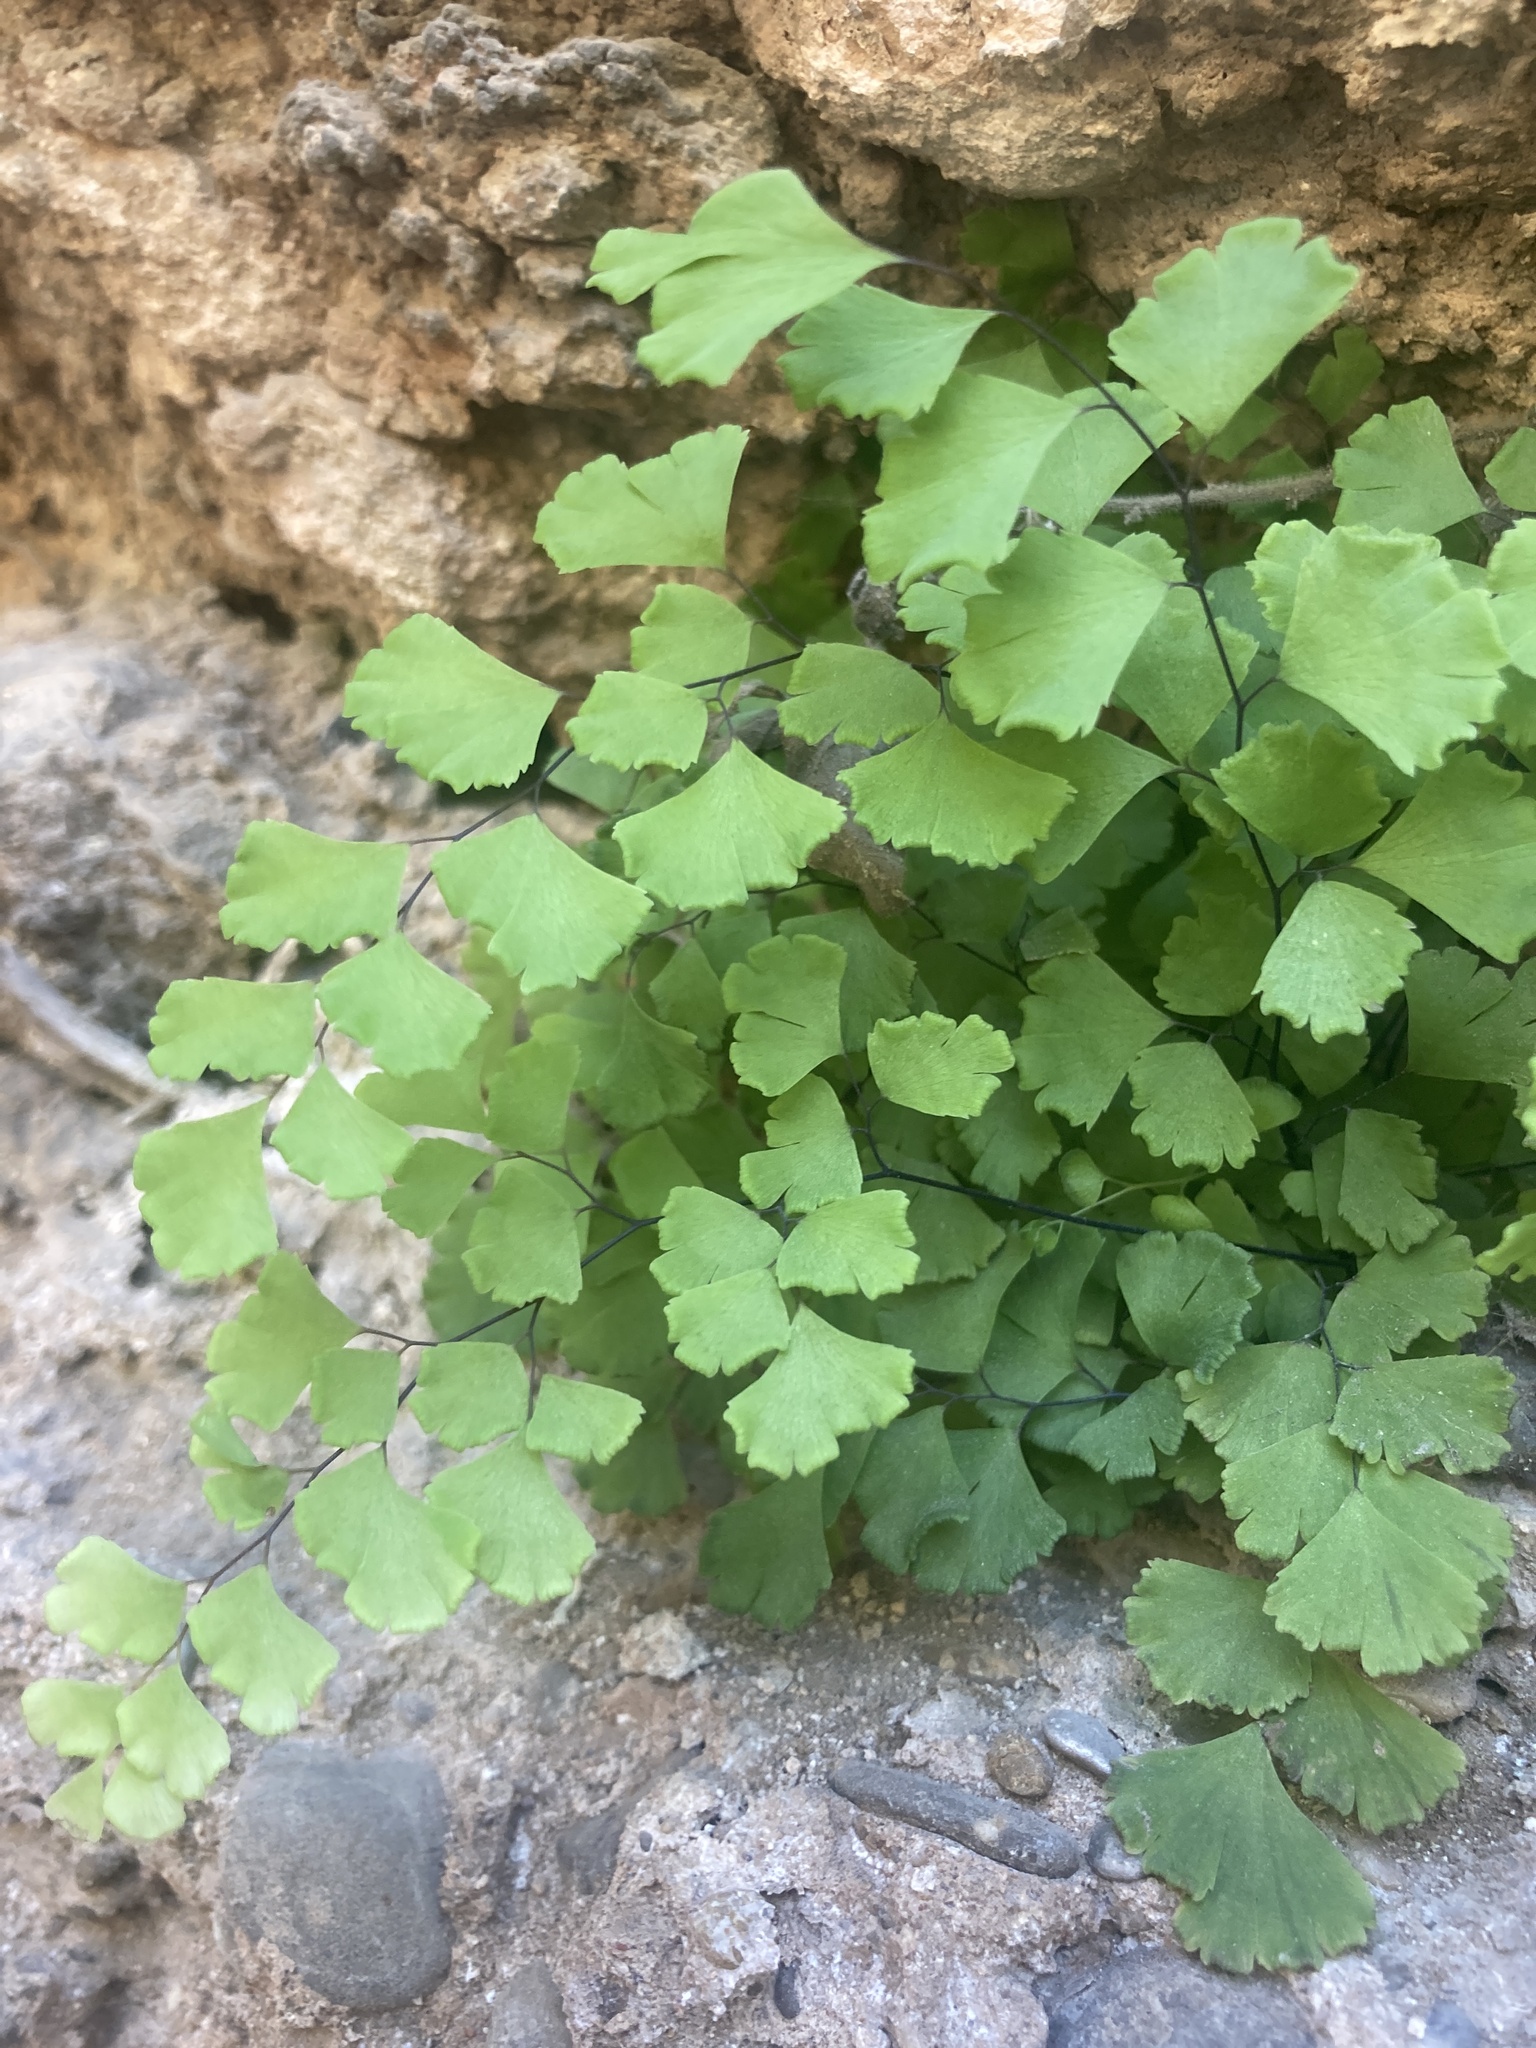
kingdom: Plantae
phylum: Tracheophyta
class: Polypodiopsida
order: Polypodiales
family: Pteridaceae
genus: Adiantum
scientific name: Adiantum capillus-veneris
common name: Maidenhair fern
